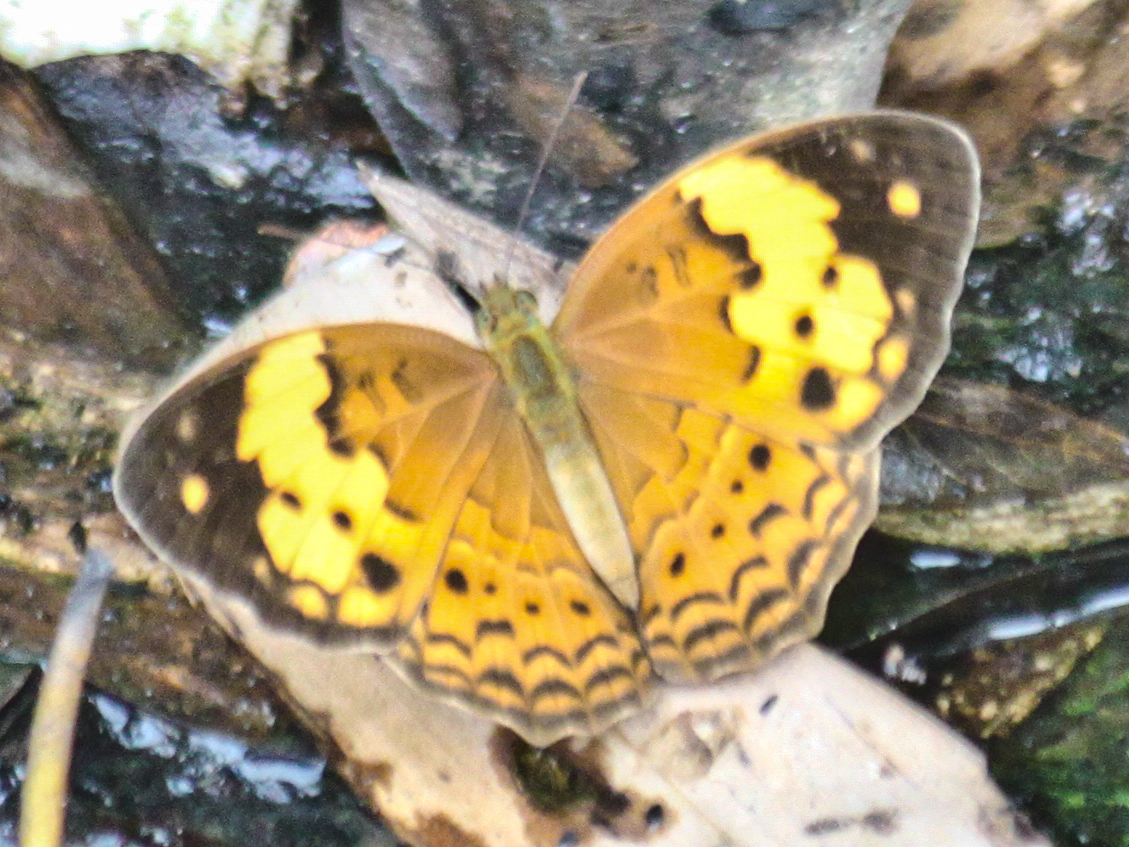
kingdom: Animalia
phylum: Arthropoda
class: Insecta
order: Lepidoptera
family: Nymphalidae
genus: Cupha
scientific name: Cupha erymanthis
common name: Rustic
